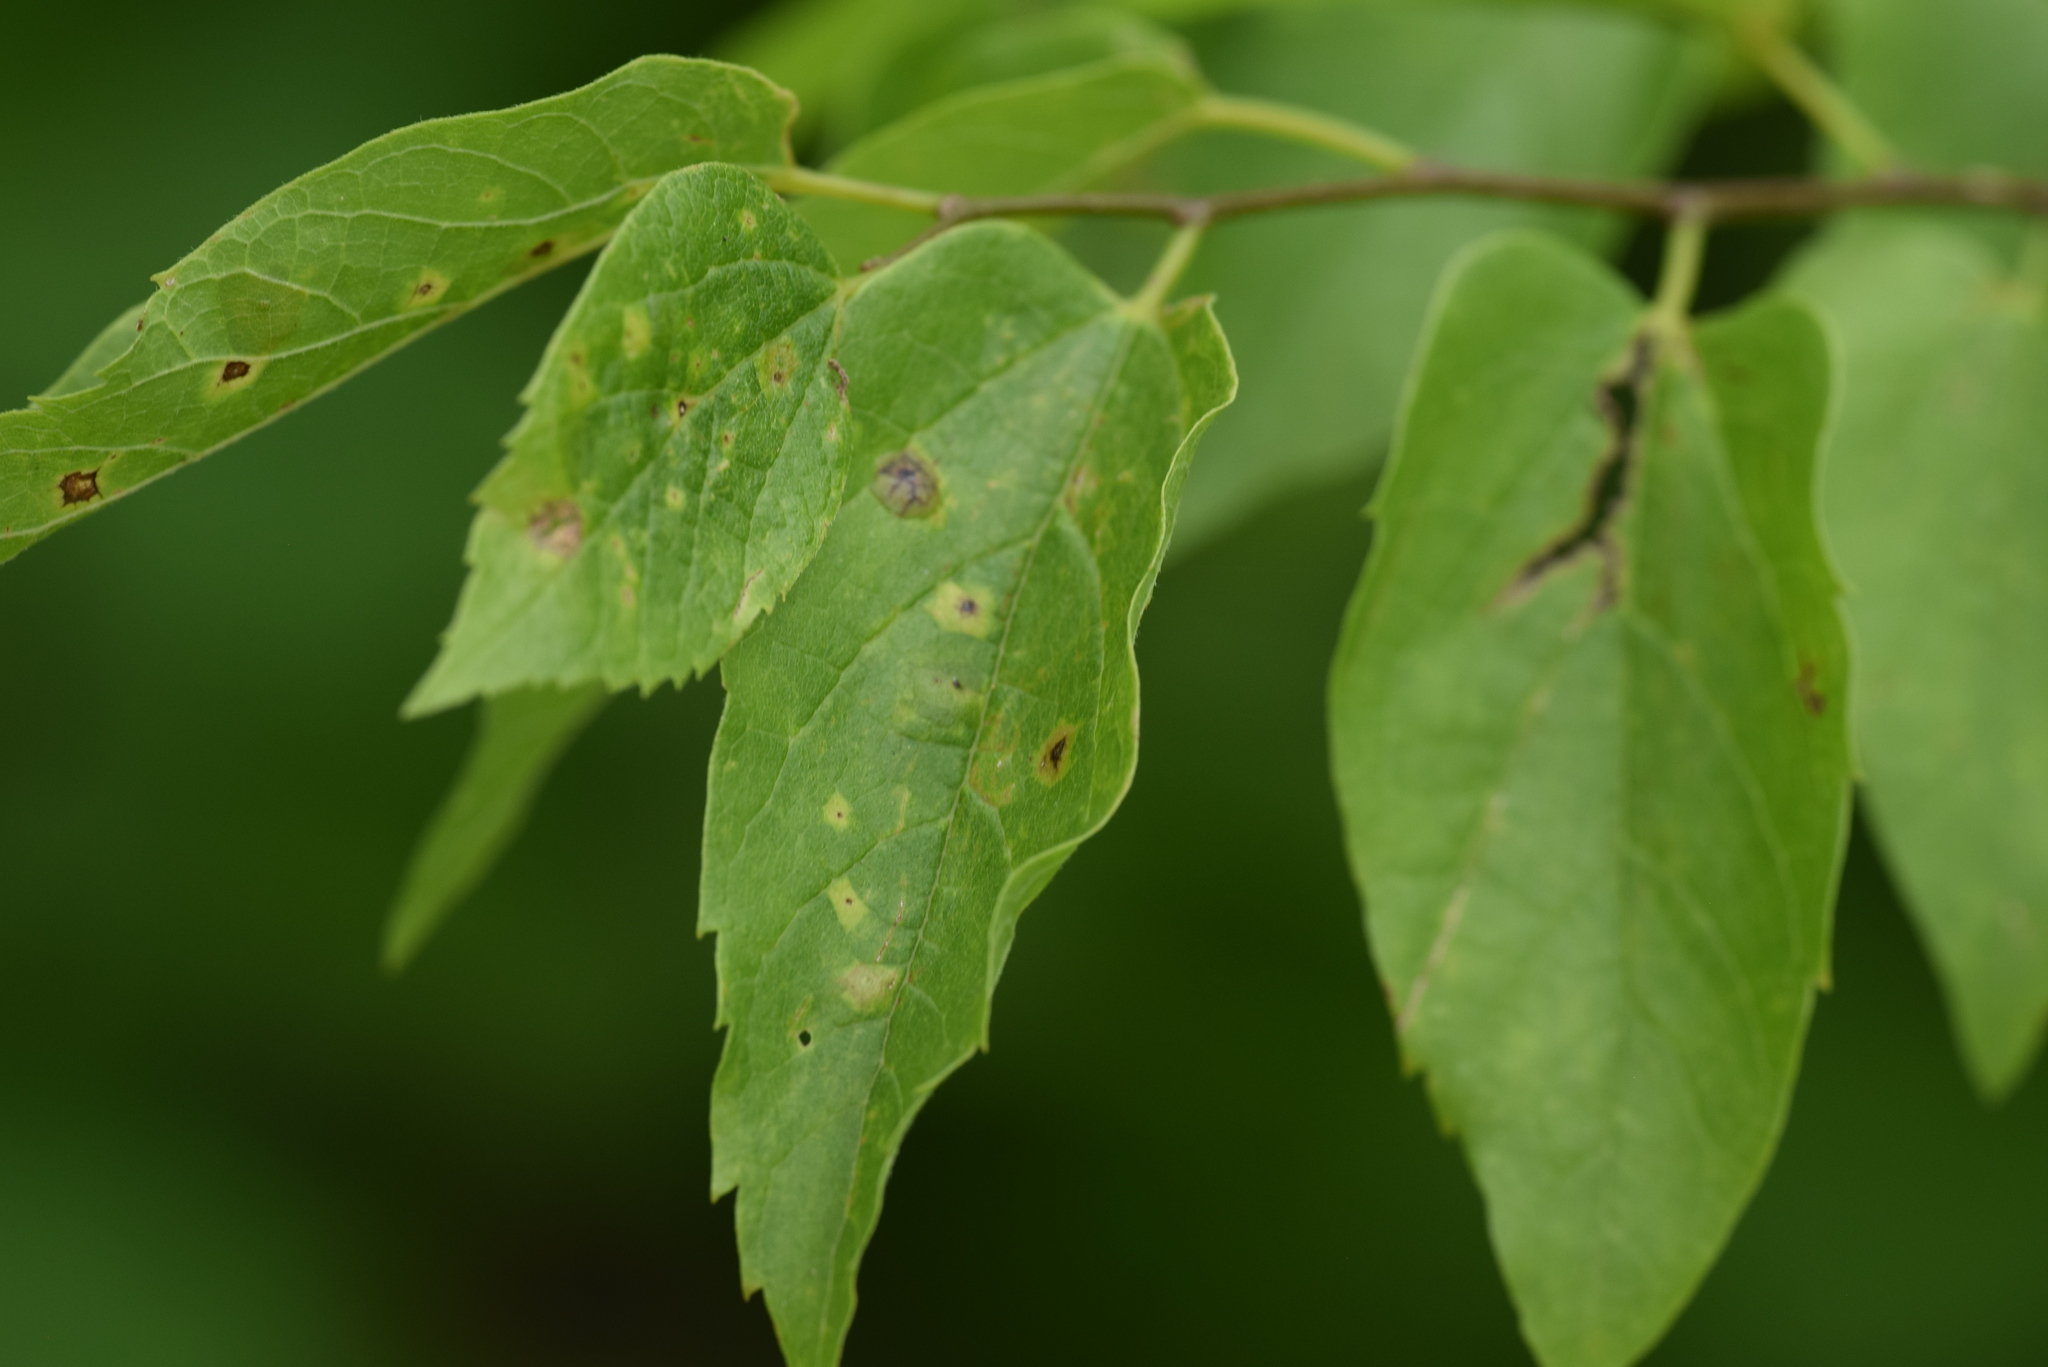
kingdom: Animalia
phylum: Arthropoda
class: Insecta
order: Hemiptera
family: Aphalaridae
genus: Pachypsylla
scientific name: Pachypsylla venusta
